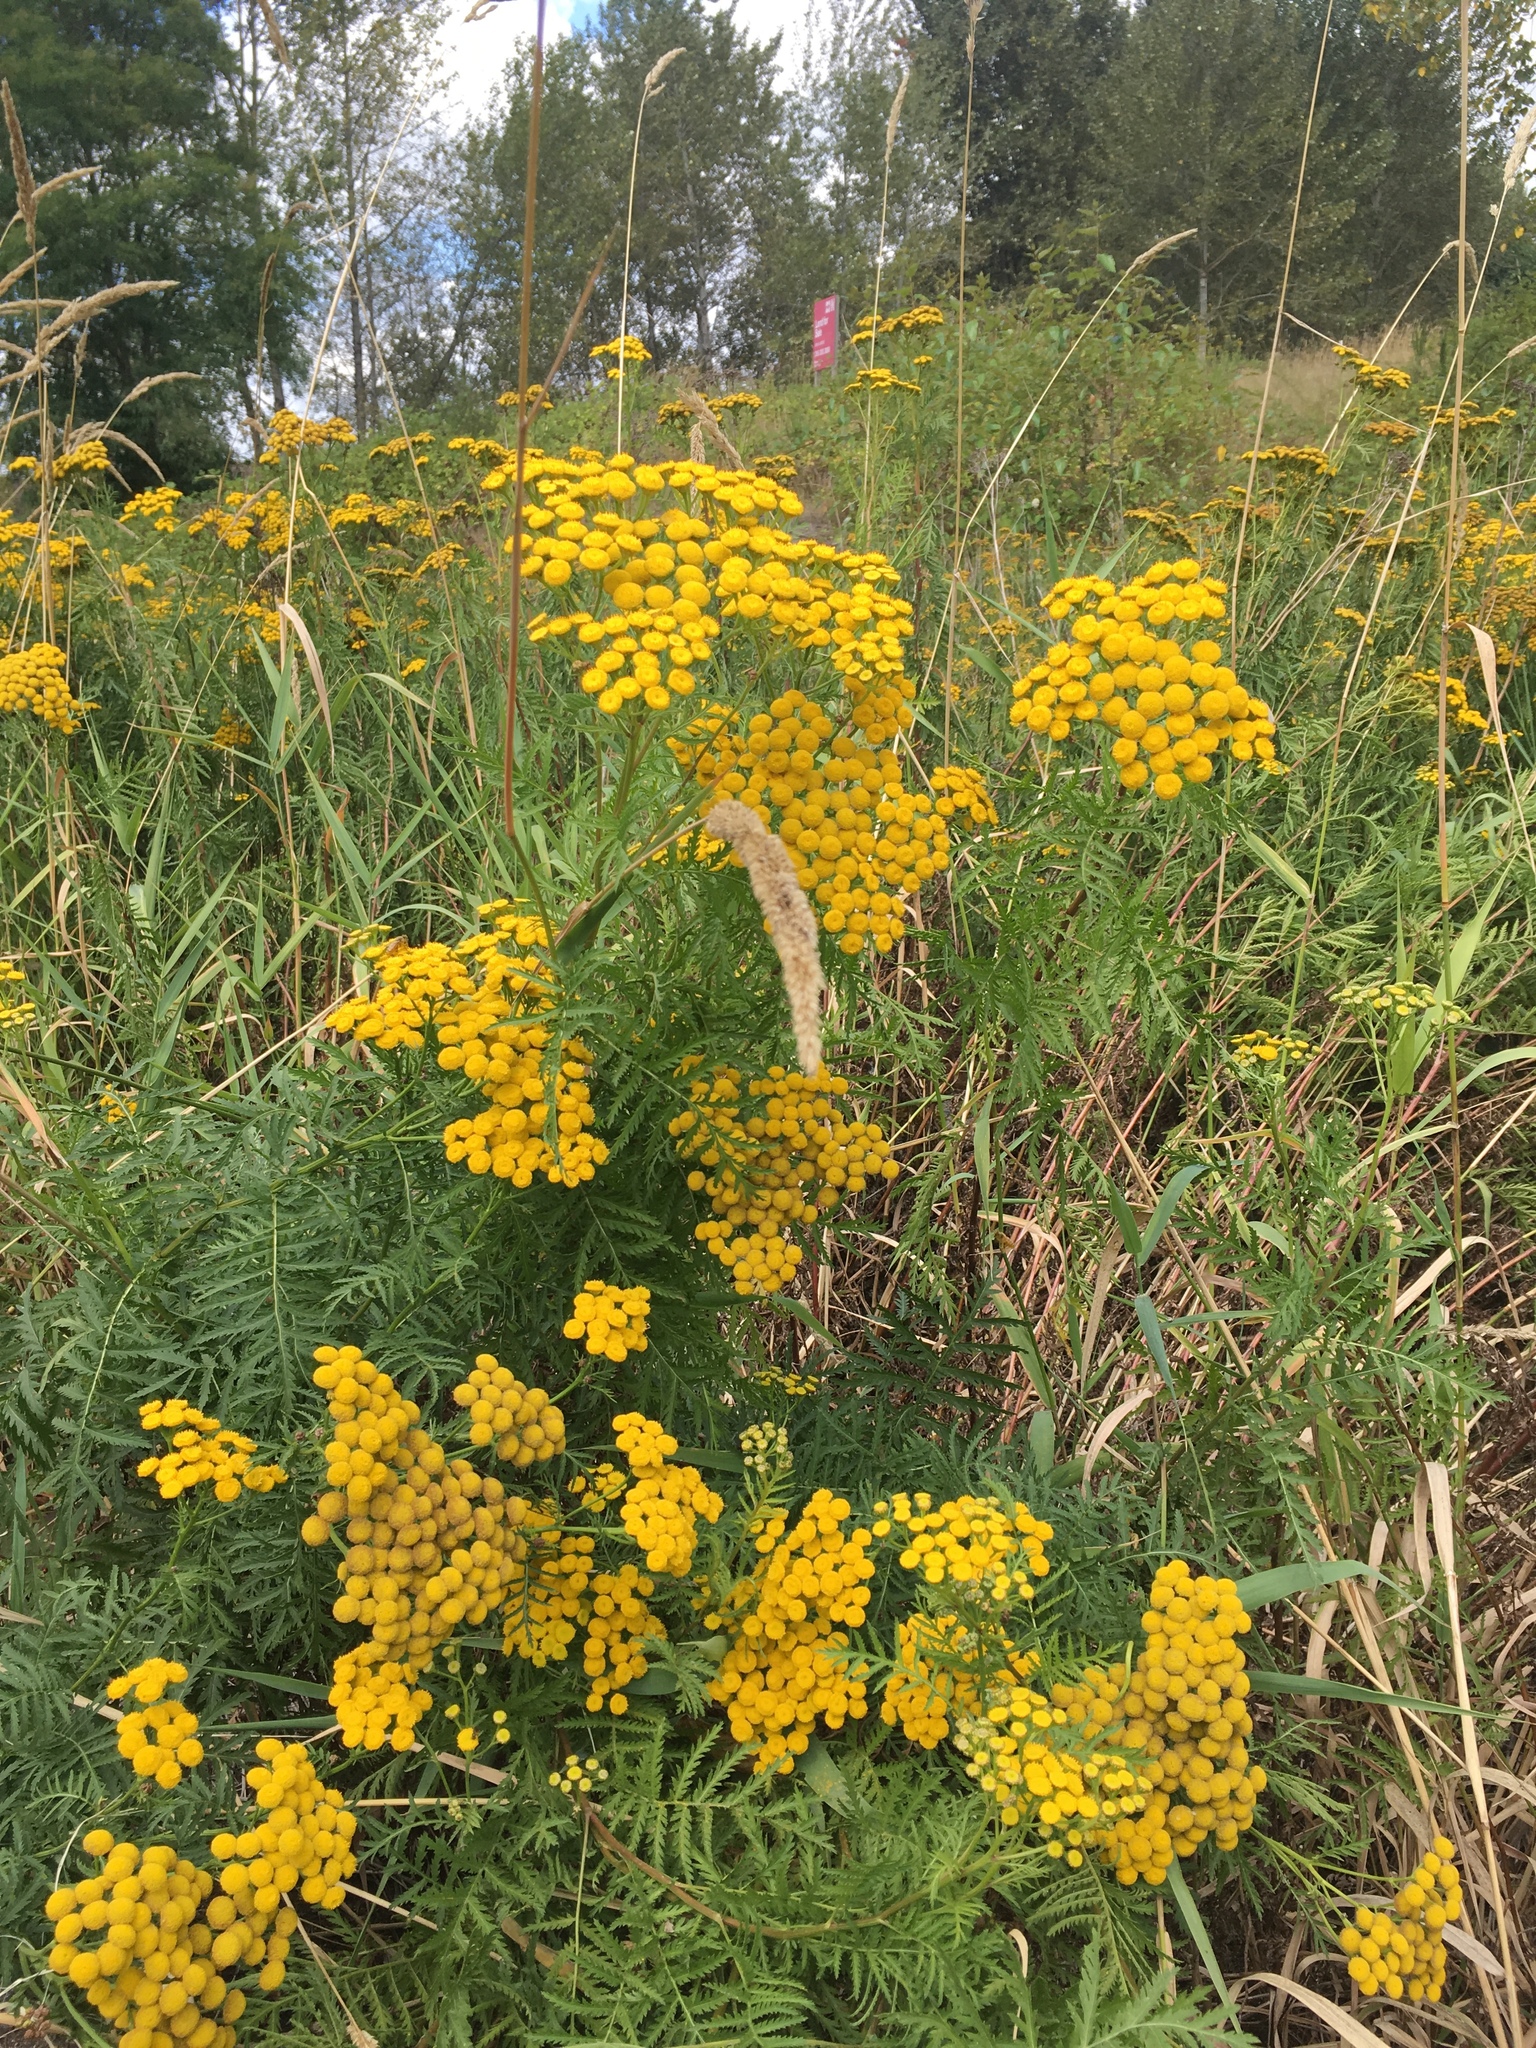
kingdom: Plantae
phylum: Tracheophyta
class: Magnoliopsida
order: Asterales
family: Asteraceae
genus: Tanacetum
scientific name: Tanacetum vulgare
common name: Common tansy
